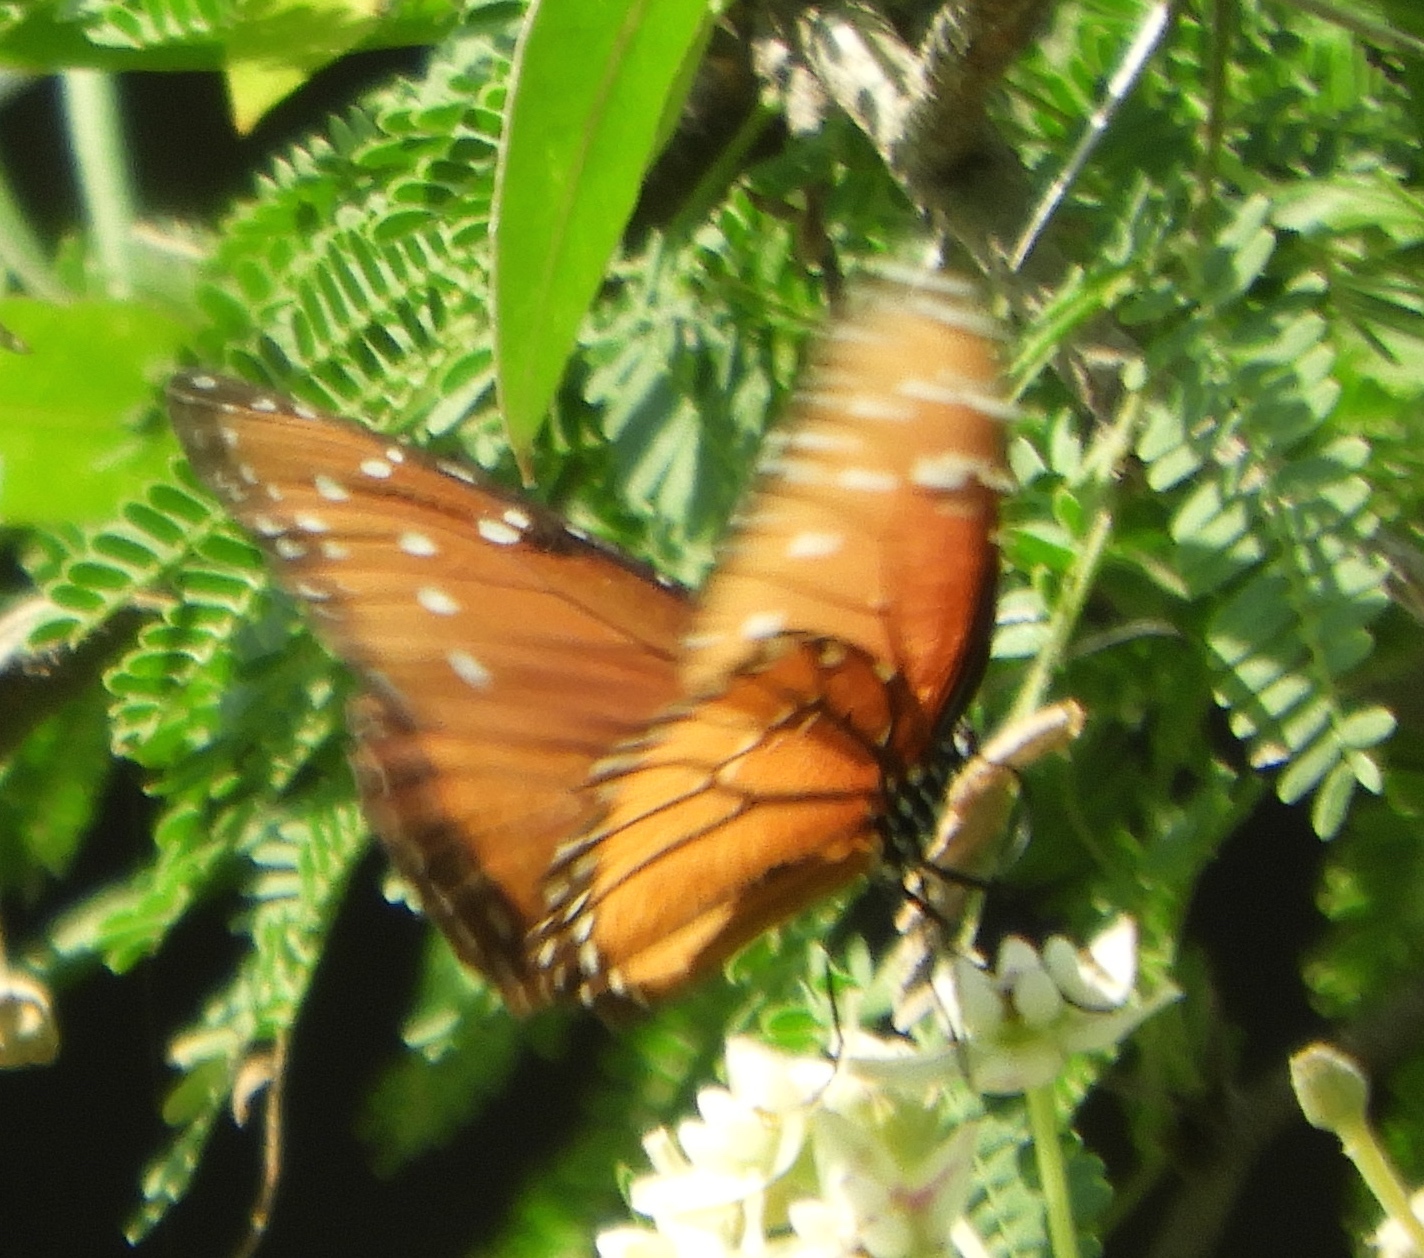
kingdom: Animalia
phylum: Arthropoda
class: Insecta
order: Lepidoptera
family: Nymphalidae
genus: Danaus
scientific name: Danaus gilippus
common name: Queen
